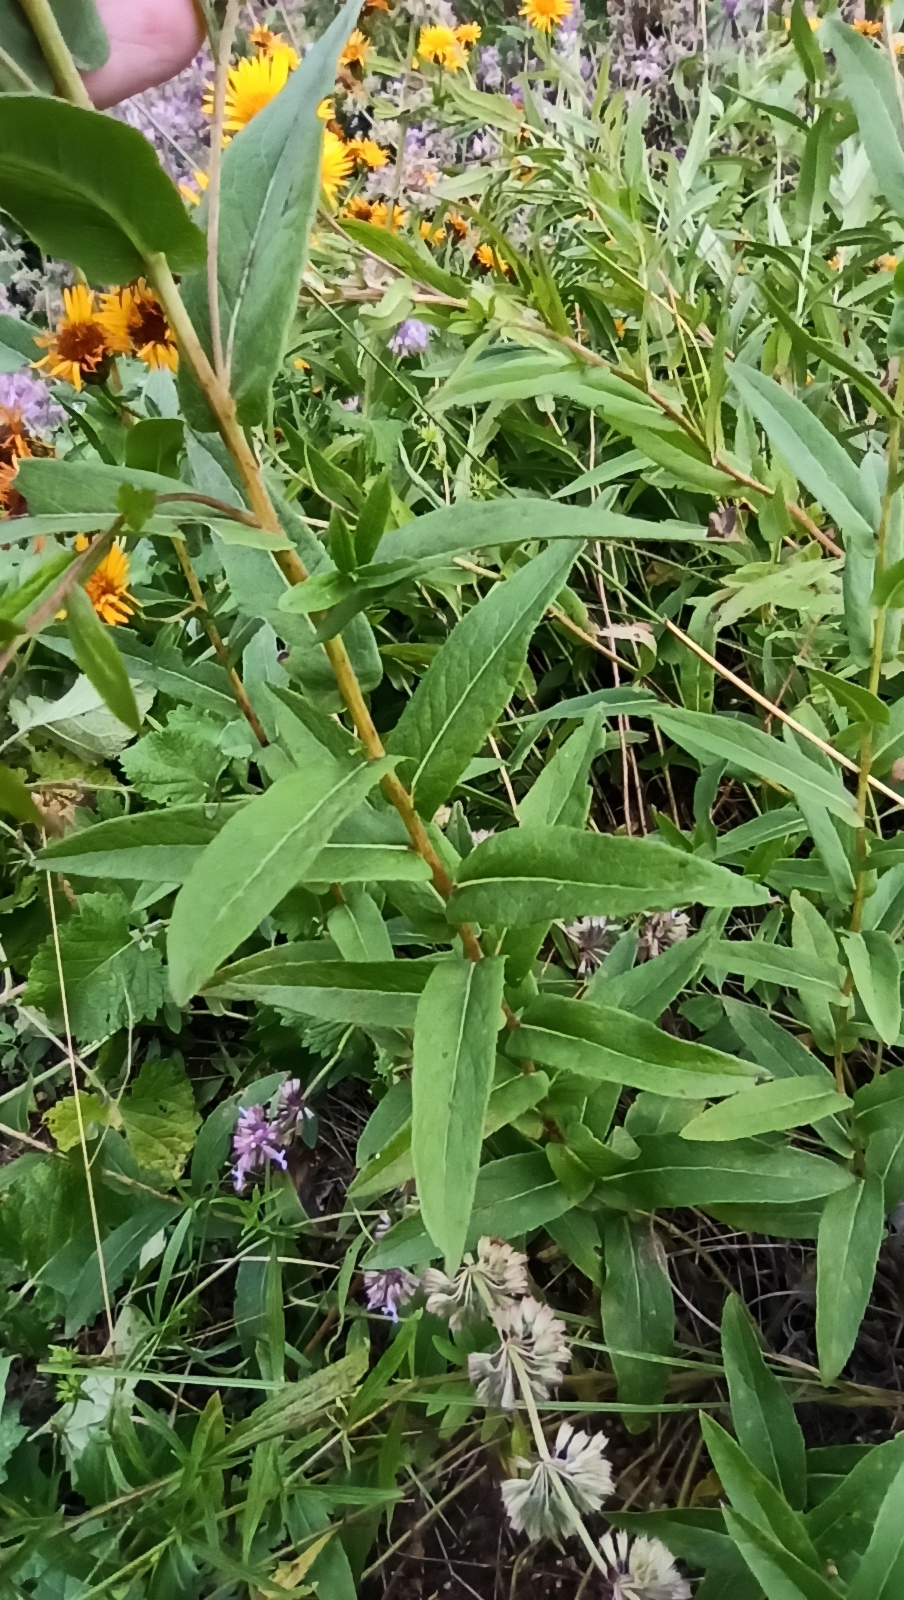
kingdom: Plantae
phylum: Tracheophyta
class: Magnoliopsida
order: Asterales
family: Asteraceae
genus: Pentanema
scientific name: Pentanema medium
